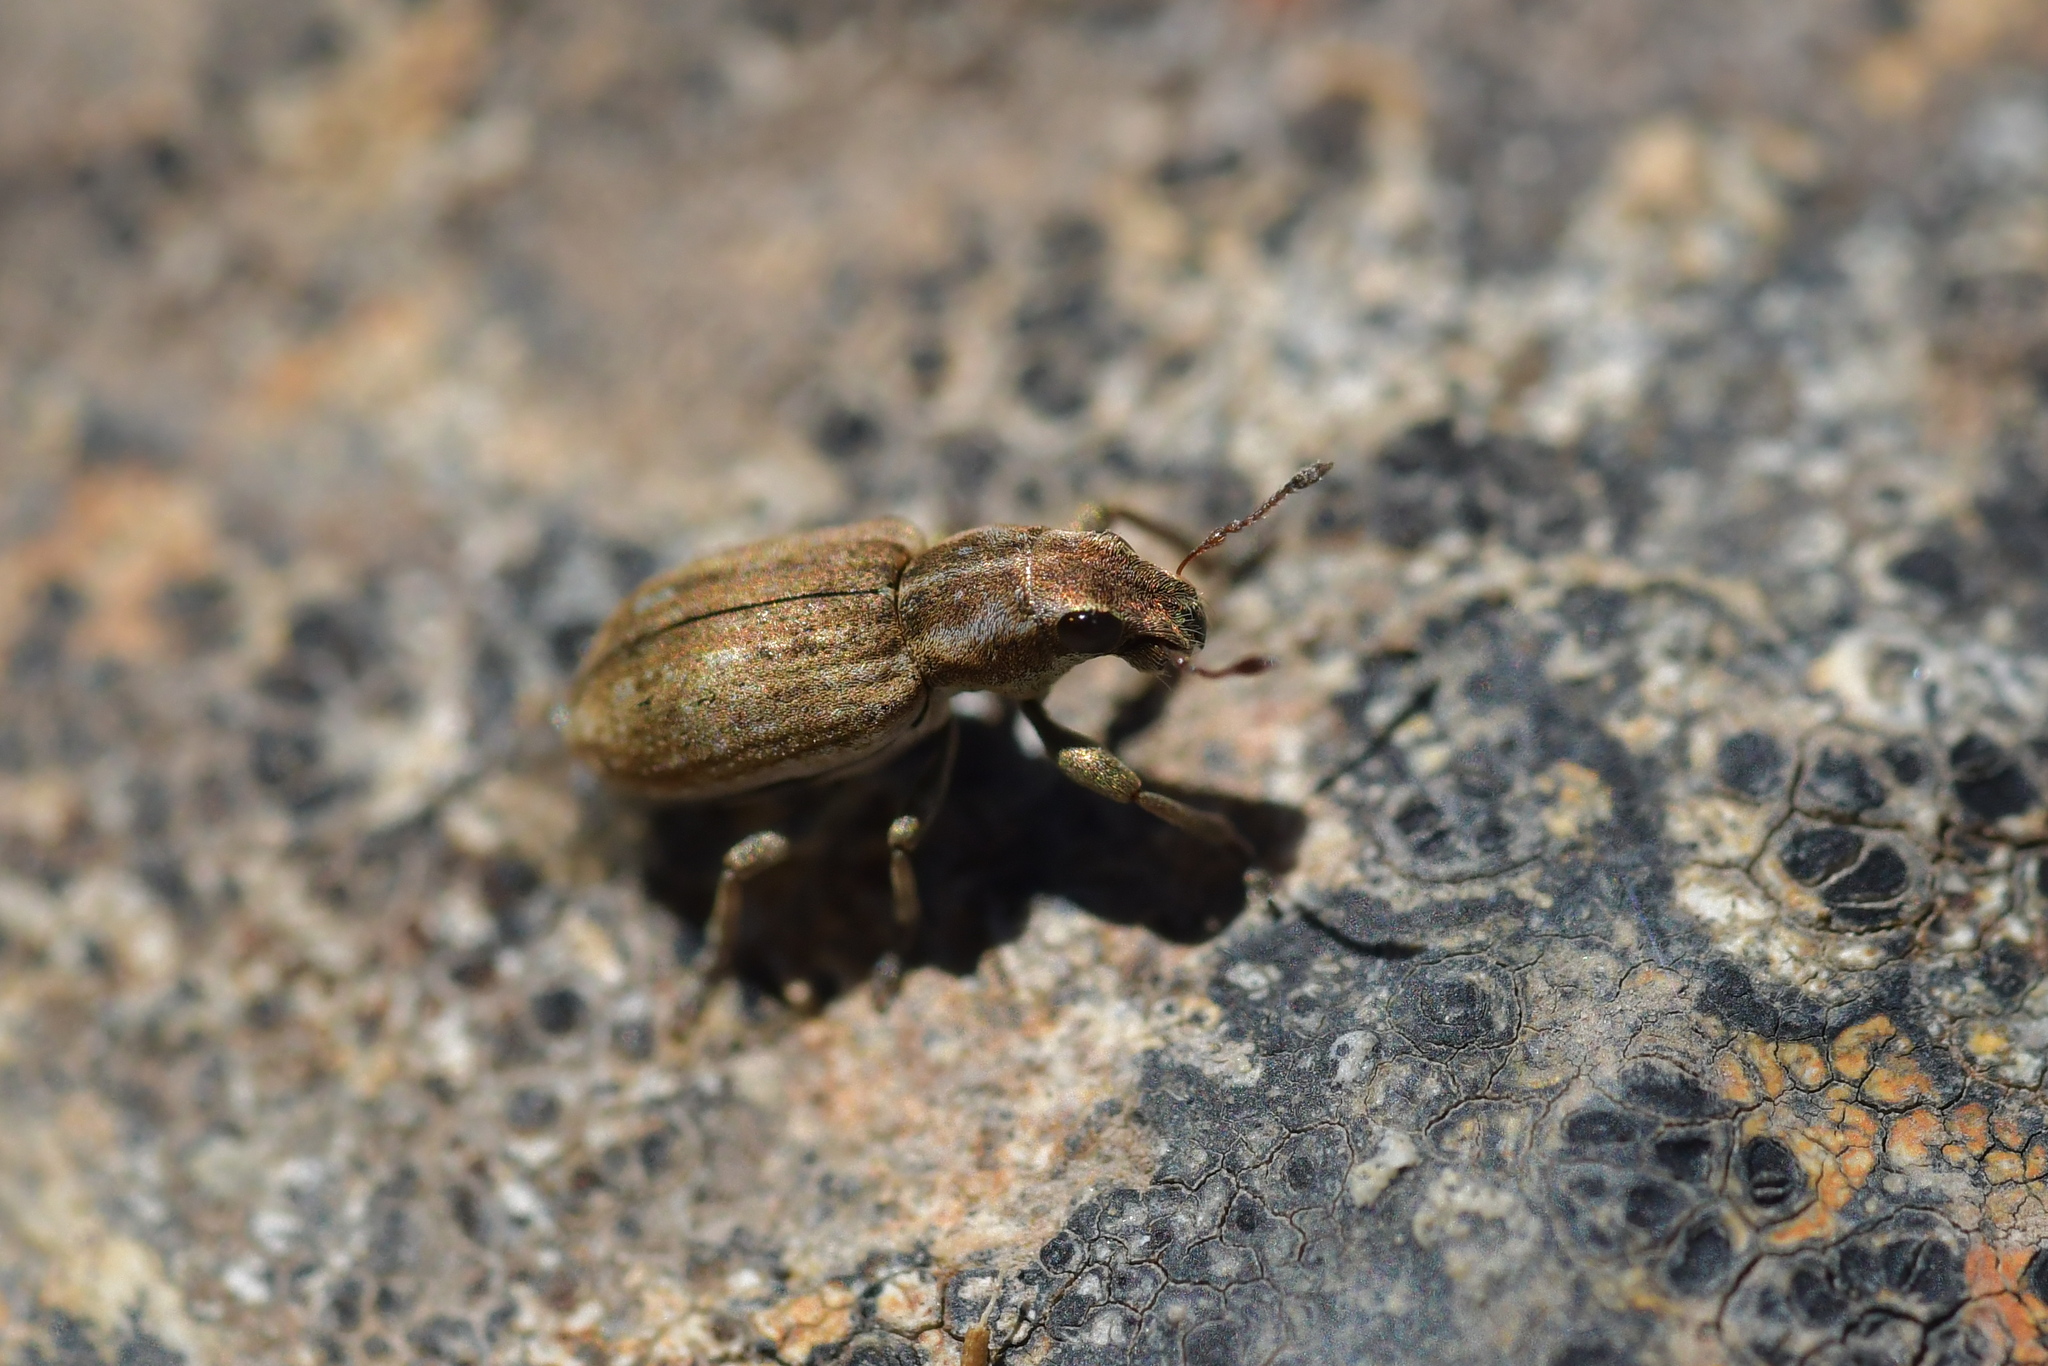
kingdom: Animalia
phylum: Arthropoda
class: Insecta
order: Coleoptera
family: Curculionidae
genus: Sitona
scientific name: Sitona obsoletus
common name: Weevil
